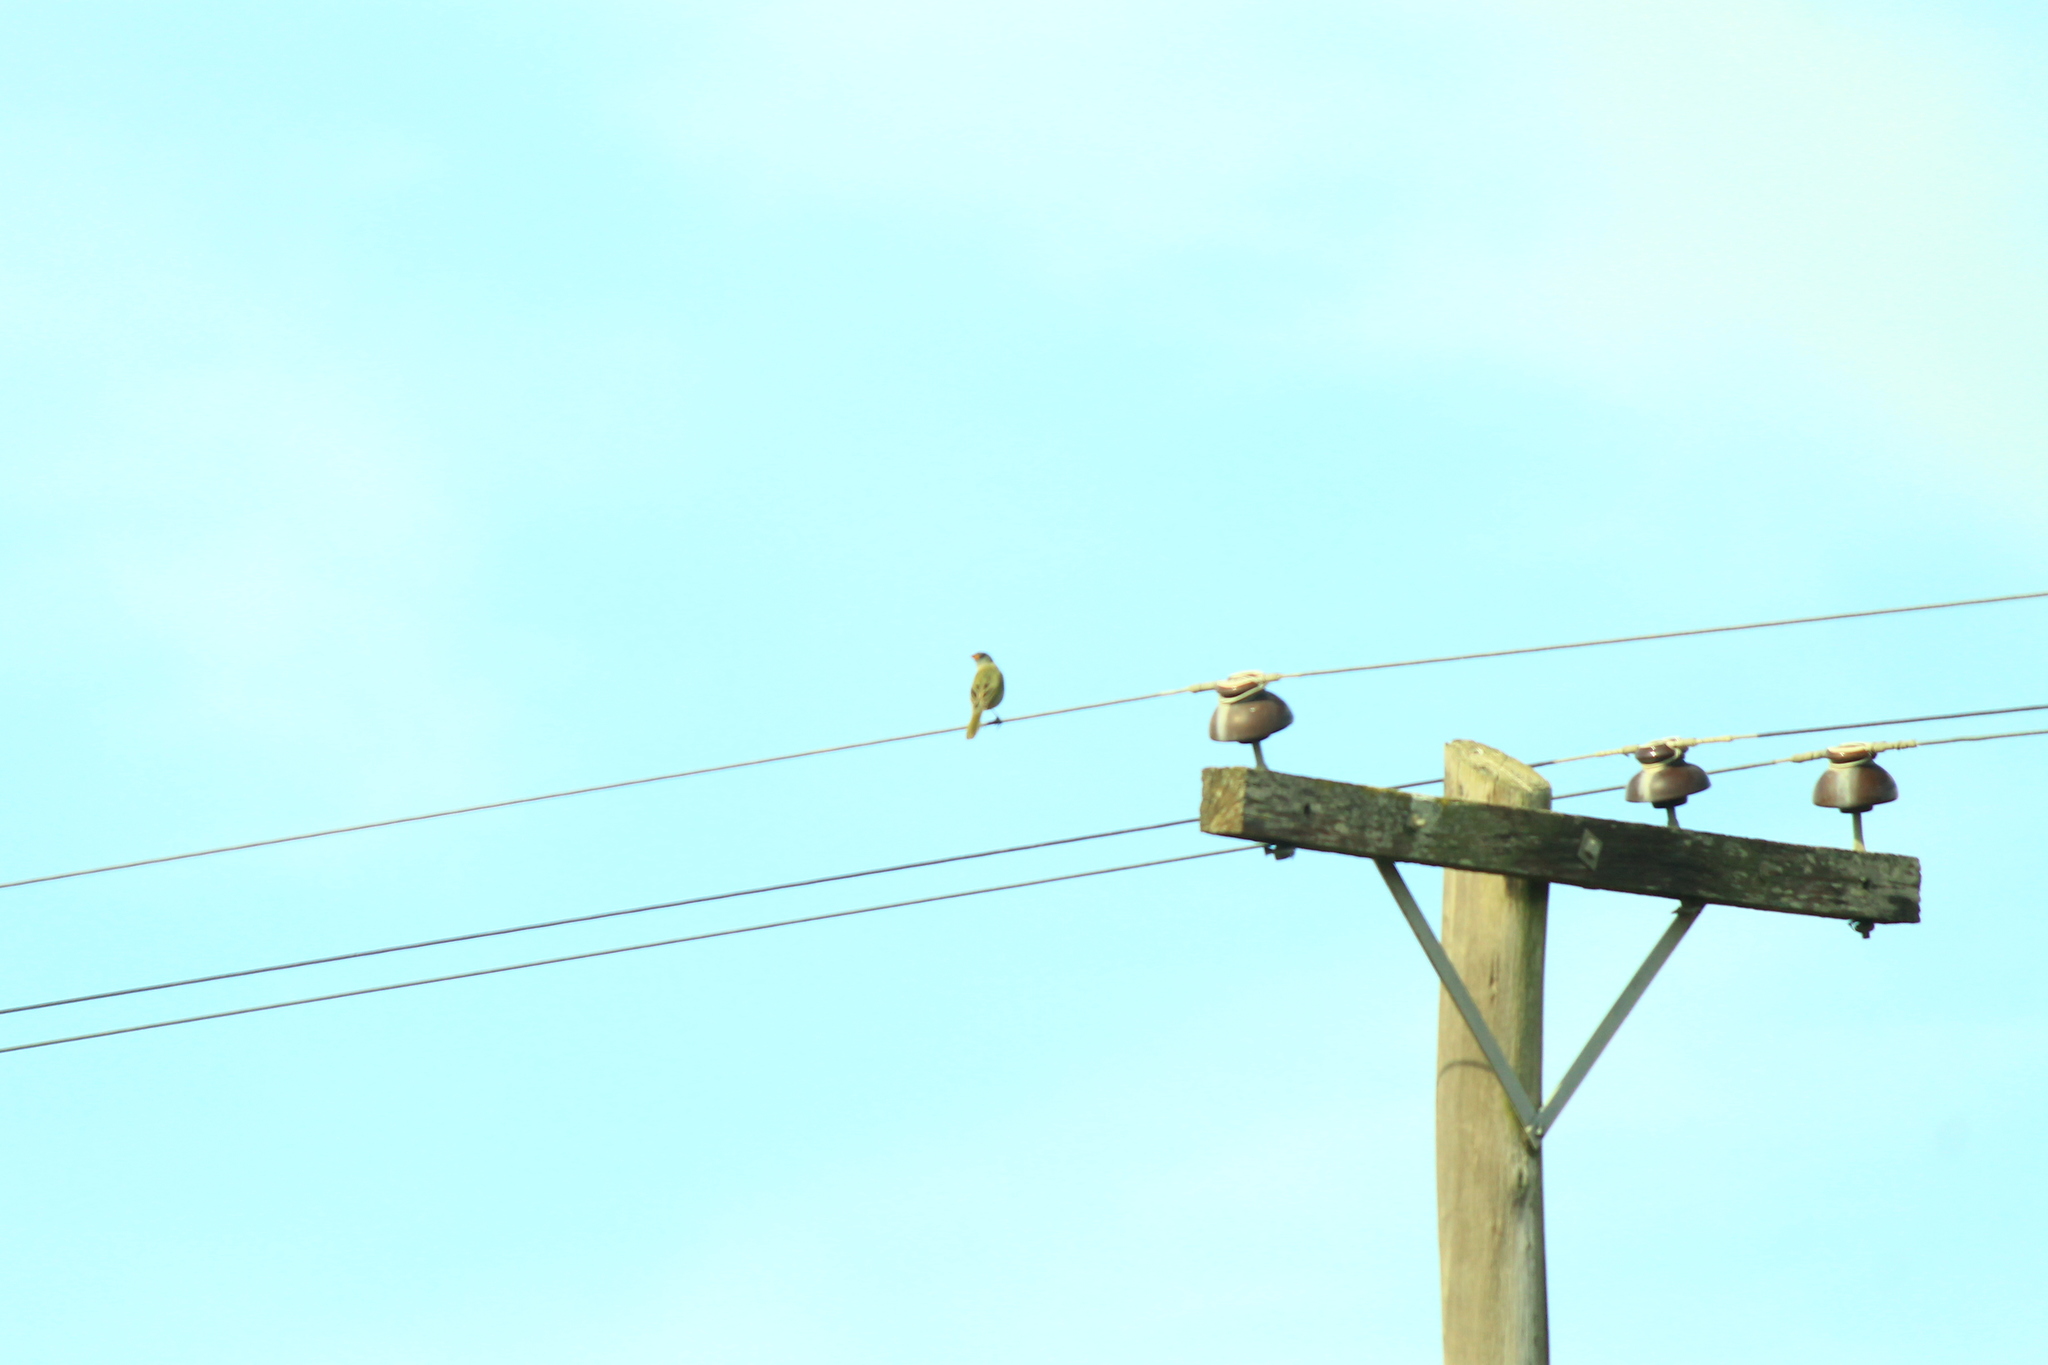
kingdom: Animalia
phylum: Chordata
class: Aves
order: Passeriformes
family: Thraupidae
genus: Embernagra
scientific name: Embernagra platensis
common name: Pampa finch
